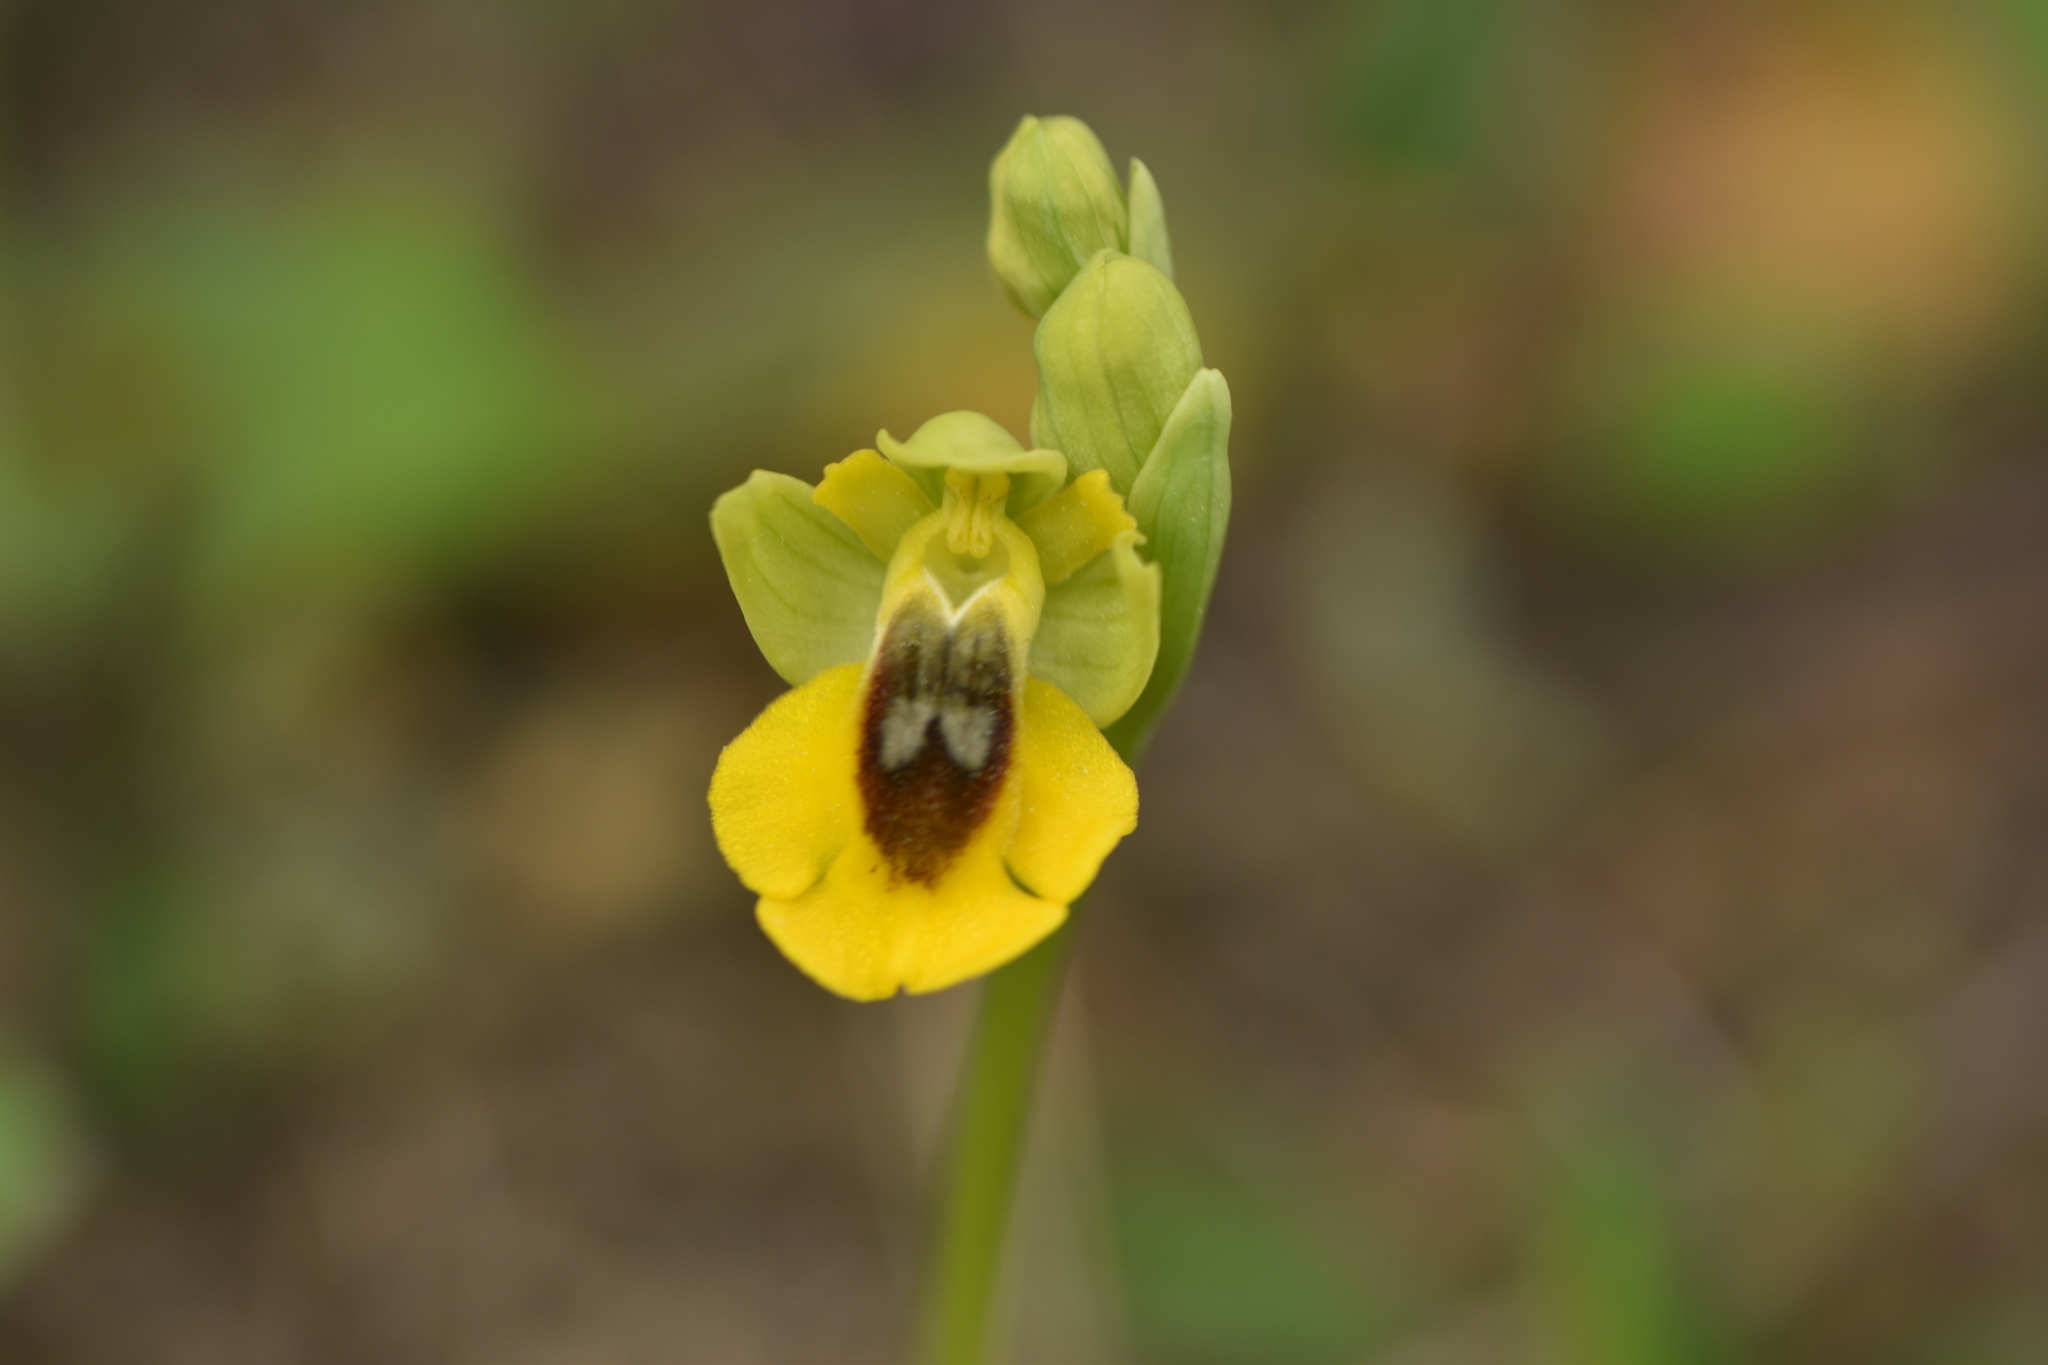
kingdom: Plantae
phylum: Tracheophyta
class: Liliopsida
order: Asparagales
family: Orchidaceae
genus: Ophrys
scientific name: Ophrys lutea
